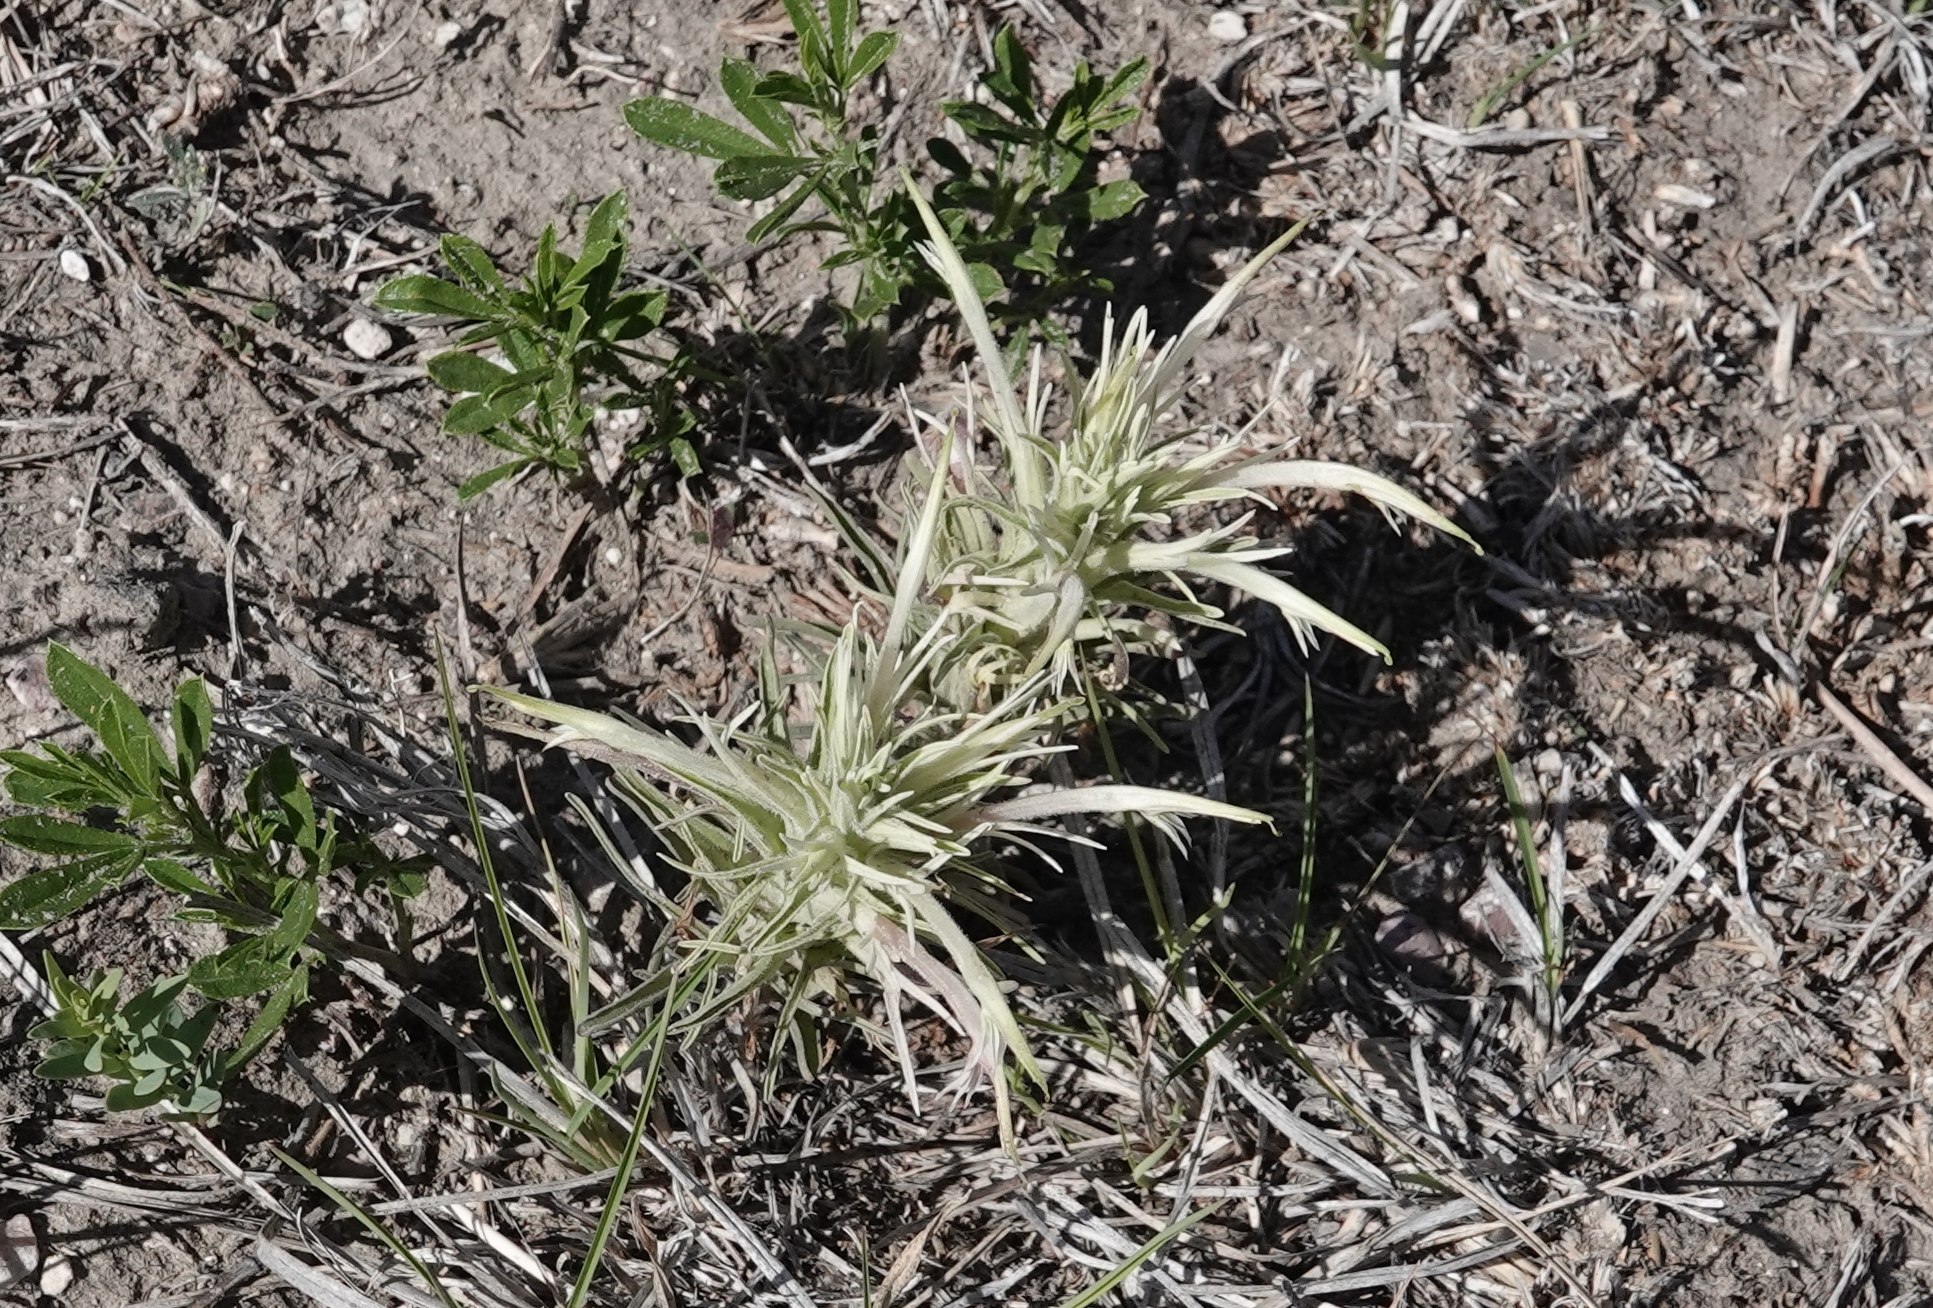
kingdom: Plantae
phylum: Tracheophyta
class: Magnoliopsida
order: Lamiales
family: Orobanchaceae
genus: Castilleja
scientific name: Castilleja sessiliflora
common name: Downy paintbrush
